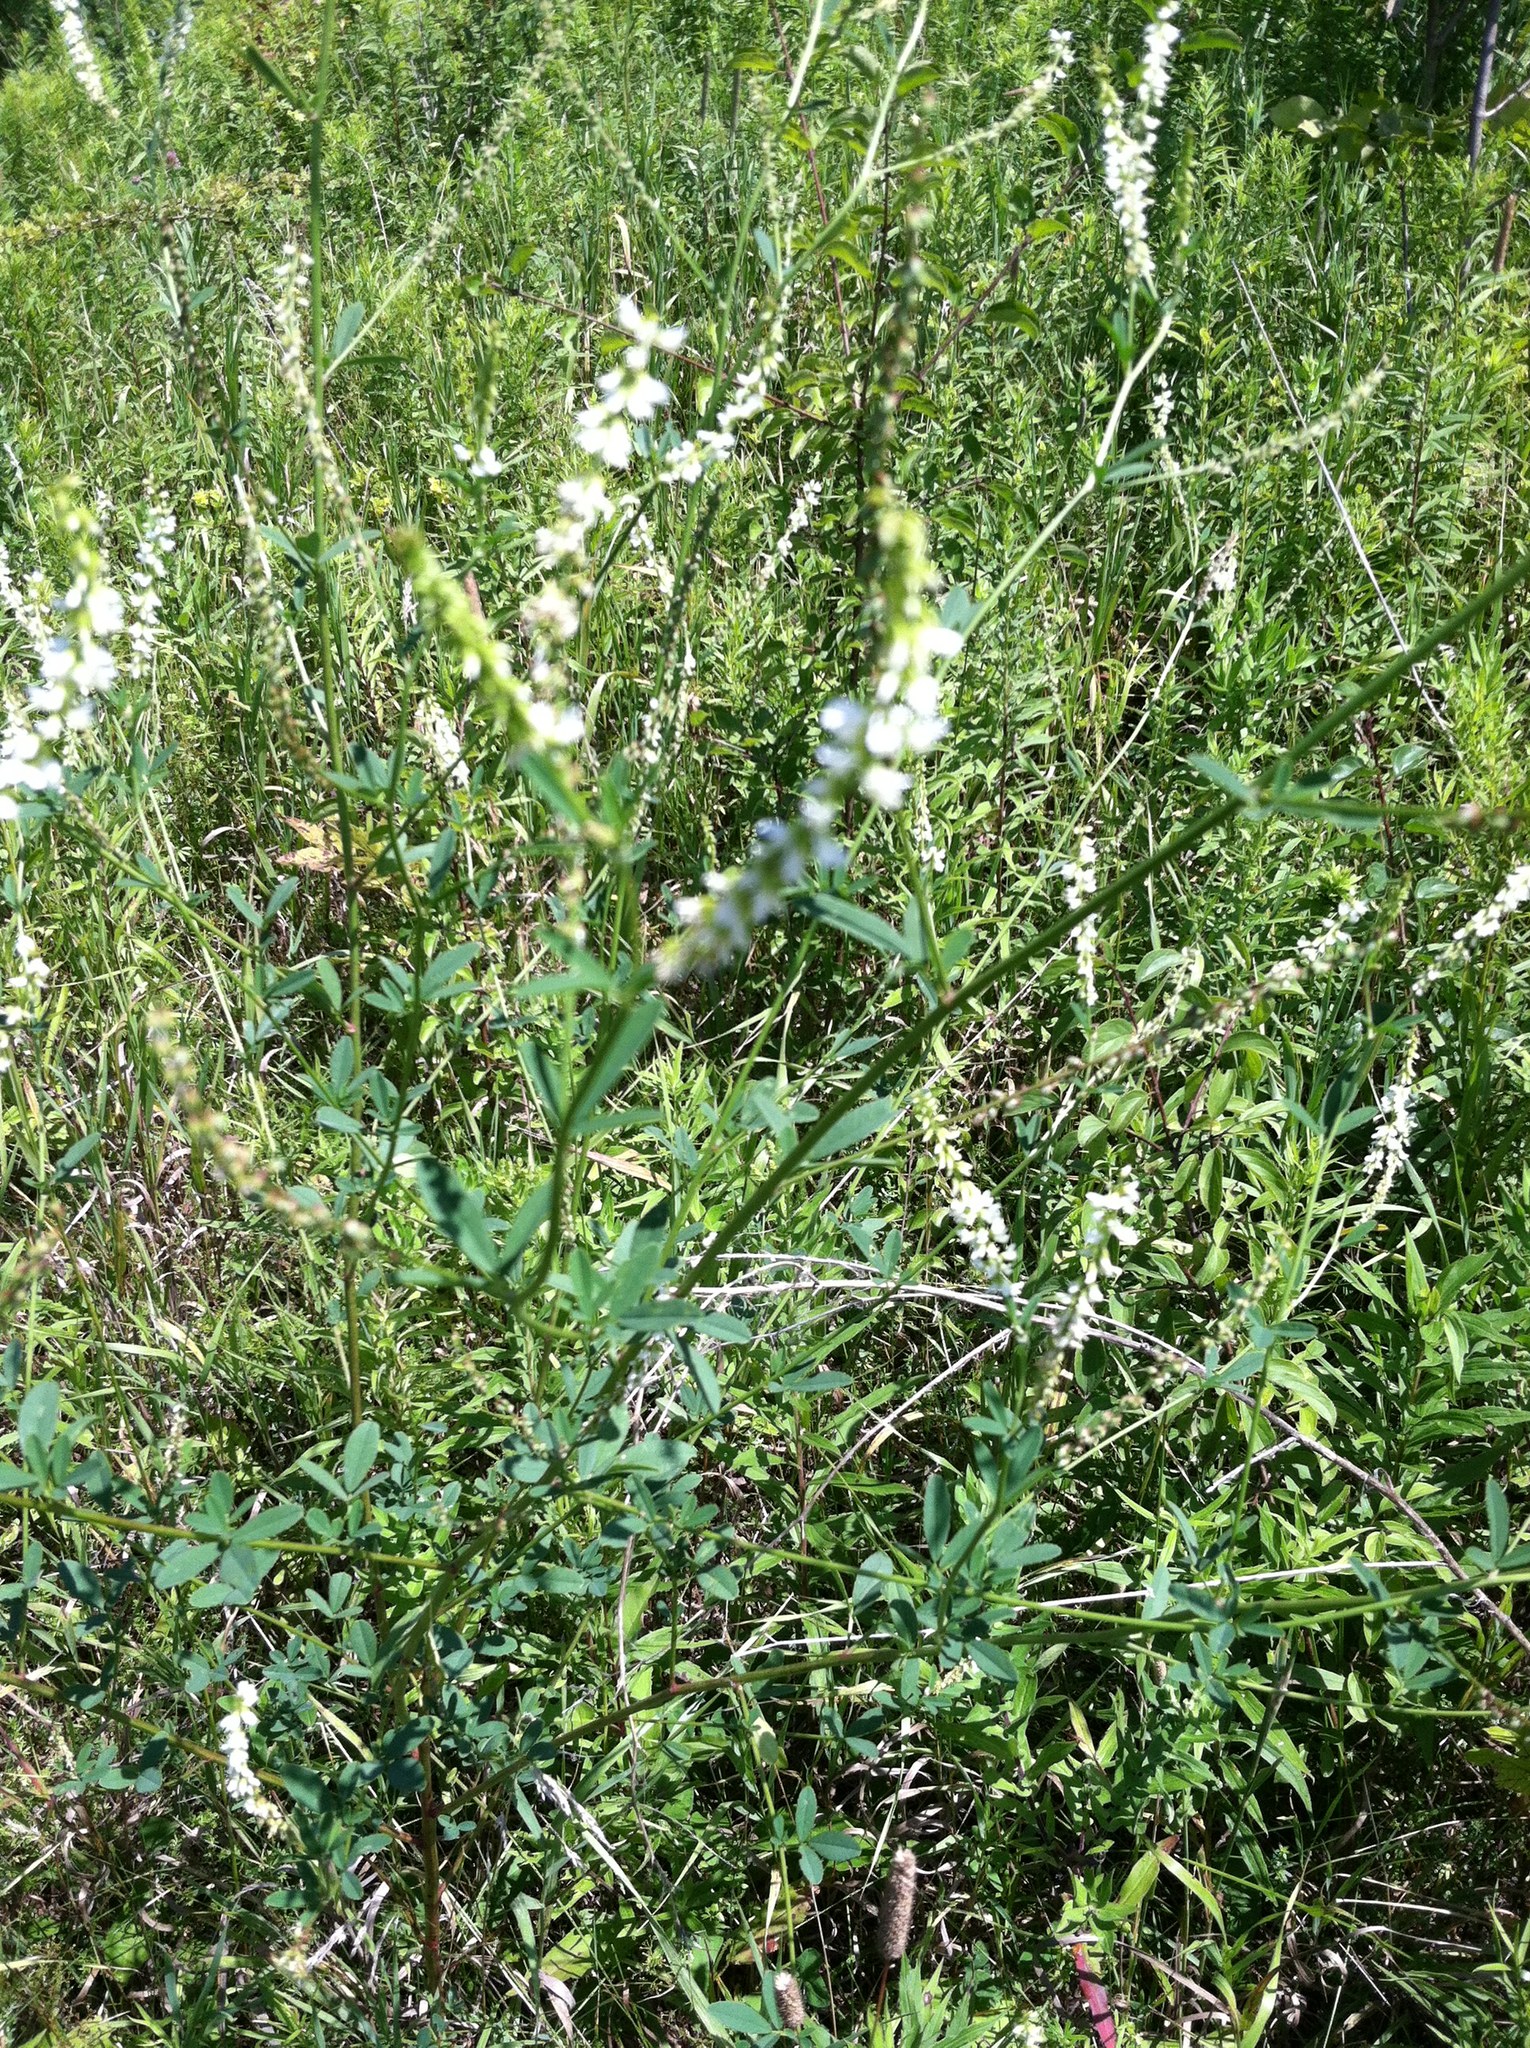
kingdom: Plantae
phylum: Tracheophyta
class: Magnoliopsida
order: Fabales
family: Fabaceae
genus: Melilotus
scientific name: Melilotus albus
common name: White melilot
